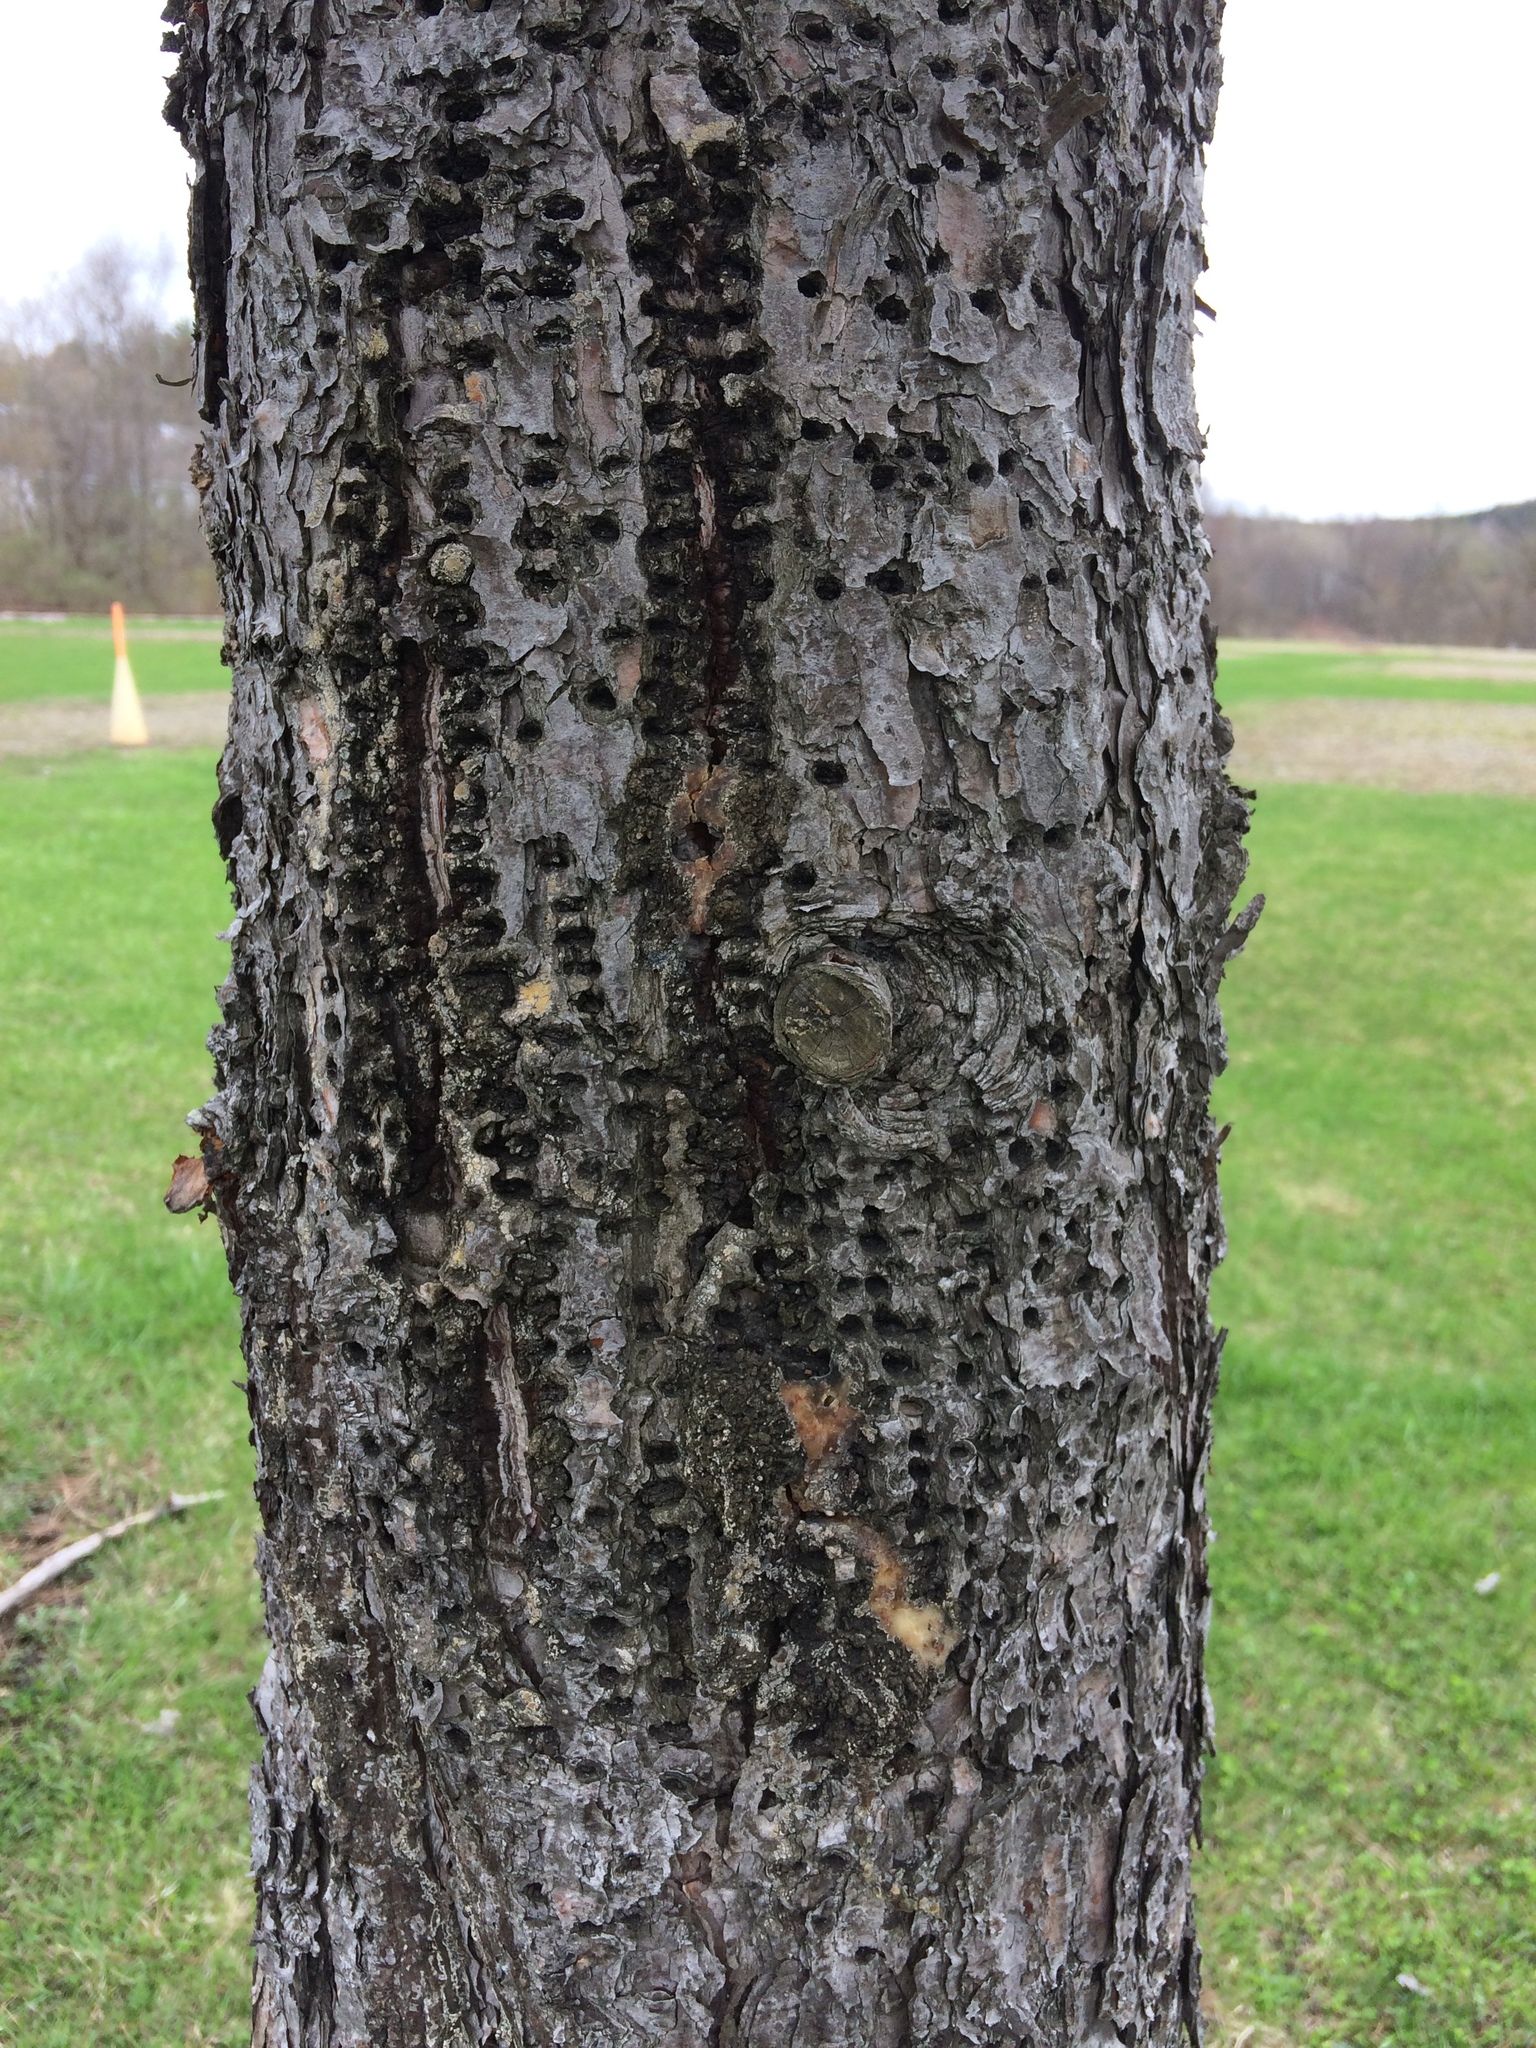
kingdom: Animalia
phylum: Chordata
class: Aves
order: Piciformes
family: Picidae
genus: Sphyrapicus
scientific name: Sphyrapicus varius
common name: Yellow-bellied sapsucker
